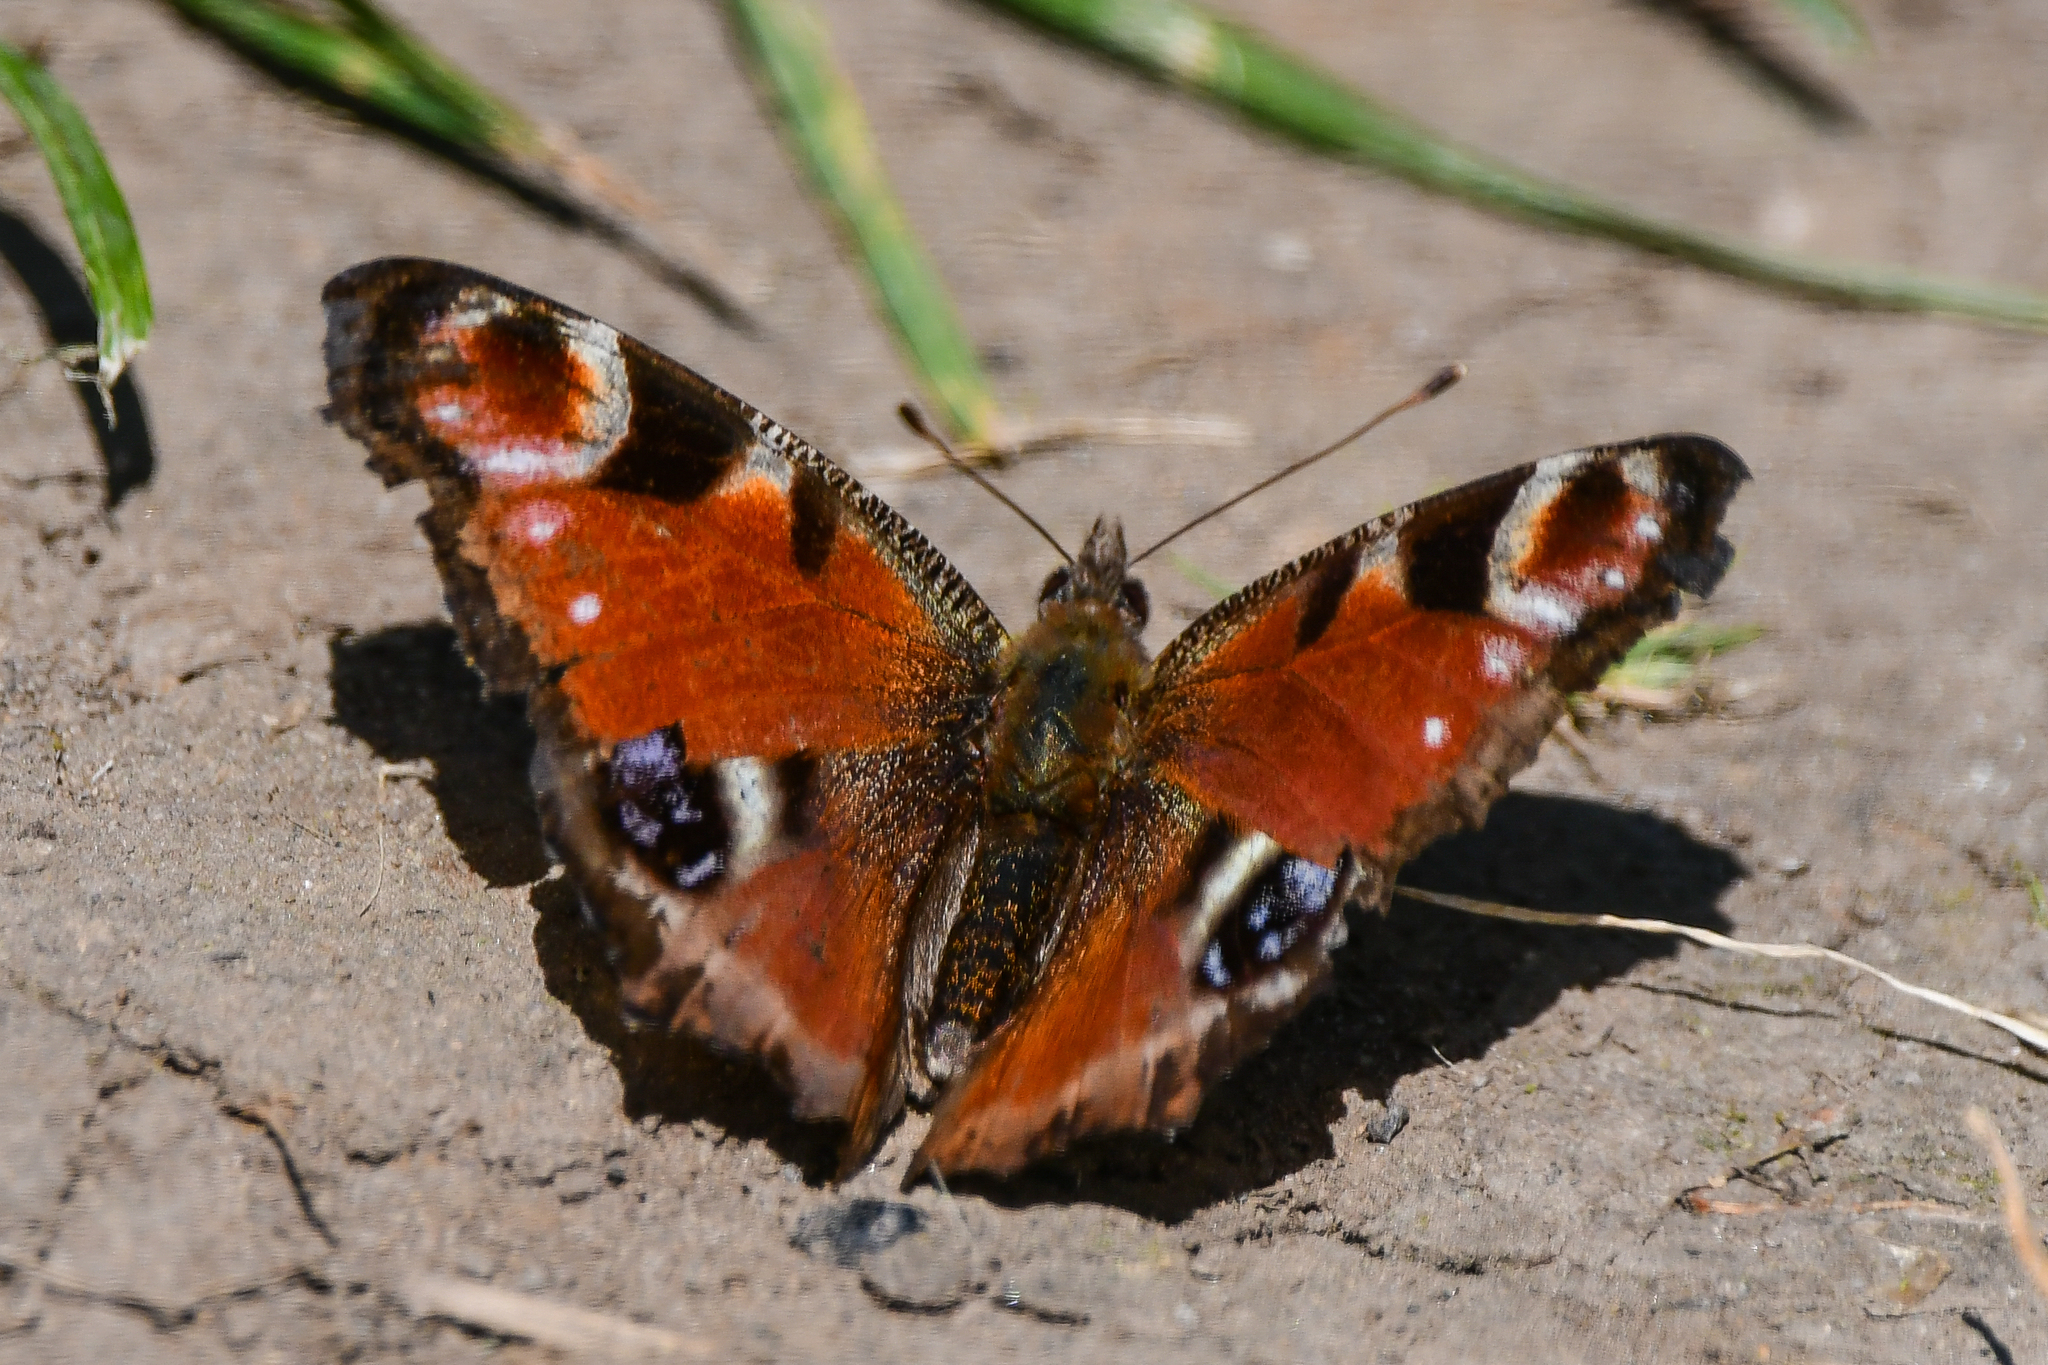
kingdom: Animalia
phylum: Arthropoda
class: Insecta
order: Lepidoptera
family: Nymphalidae
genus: Aglais
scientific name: Aglais io
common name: Peacock
